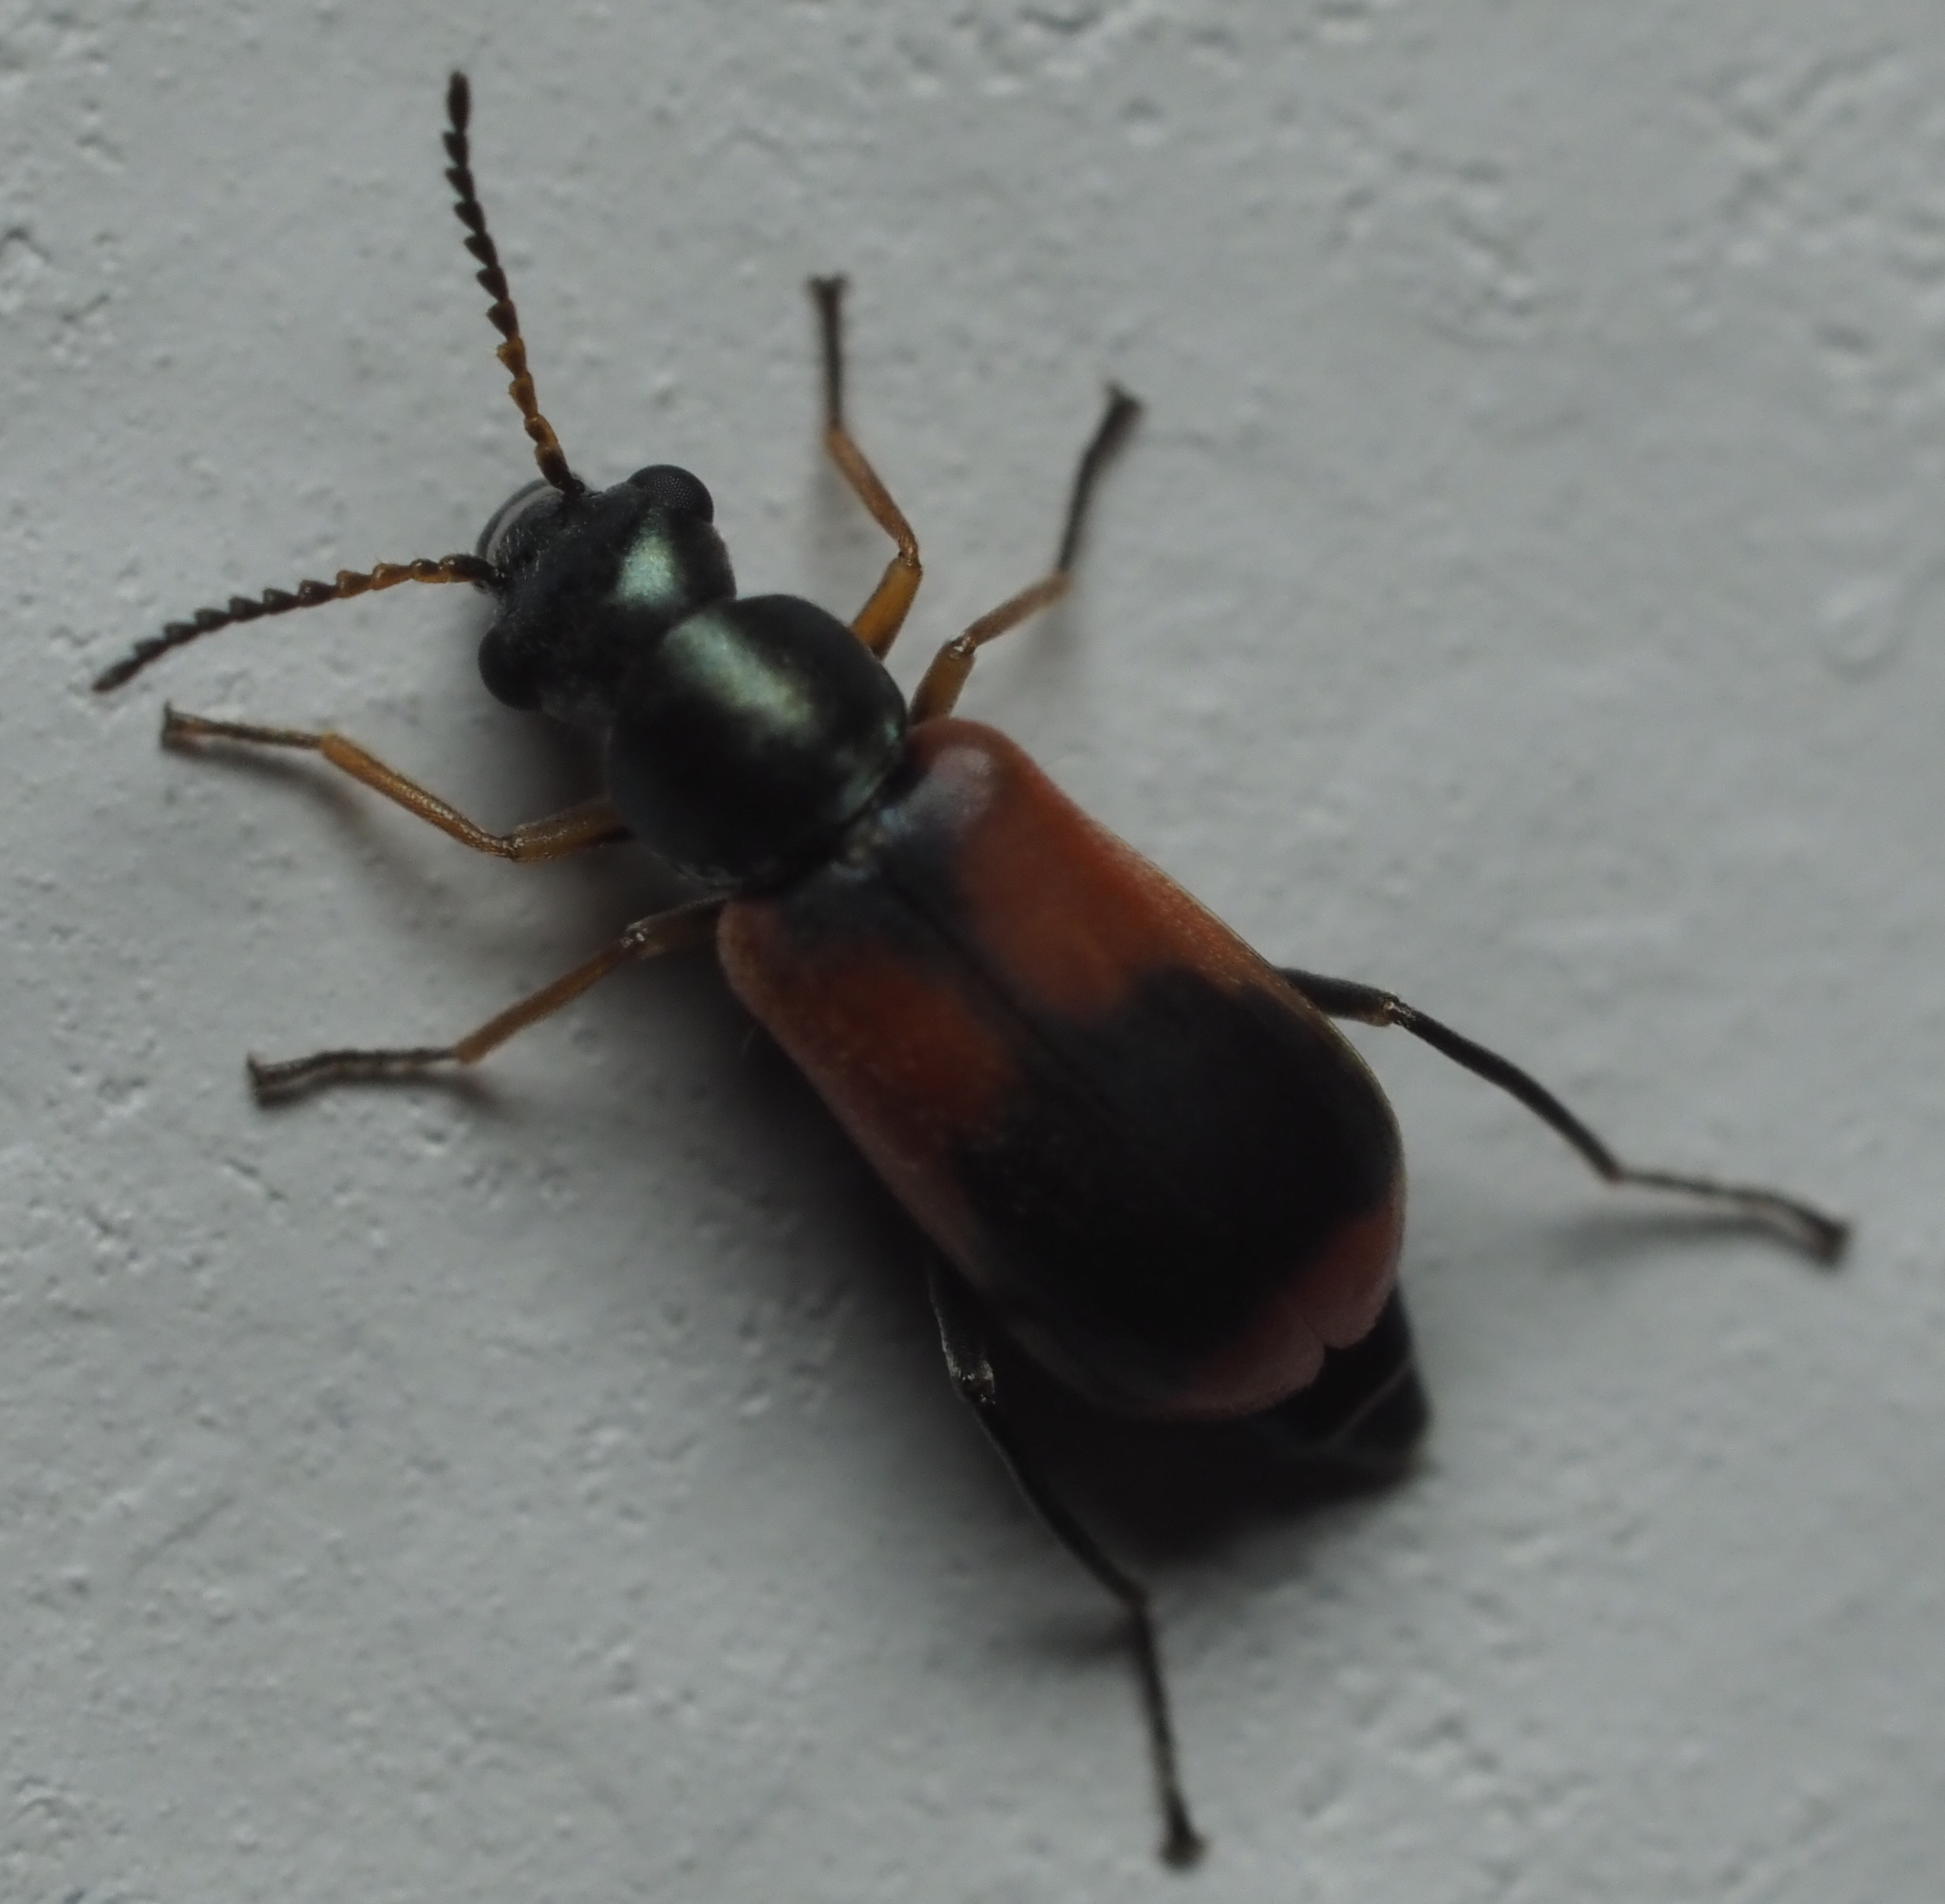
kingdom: Animalia
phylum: Arthropoda
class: Insecta
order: Coleoptera
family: Melyridae
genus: Anthocomus
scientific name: Anthocomus equestris
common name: Black-banded soft-winged flower beetle
